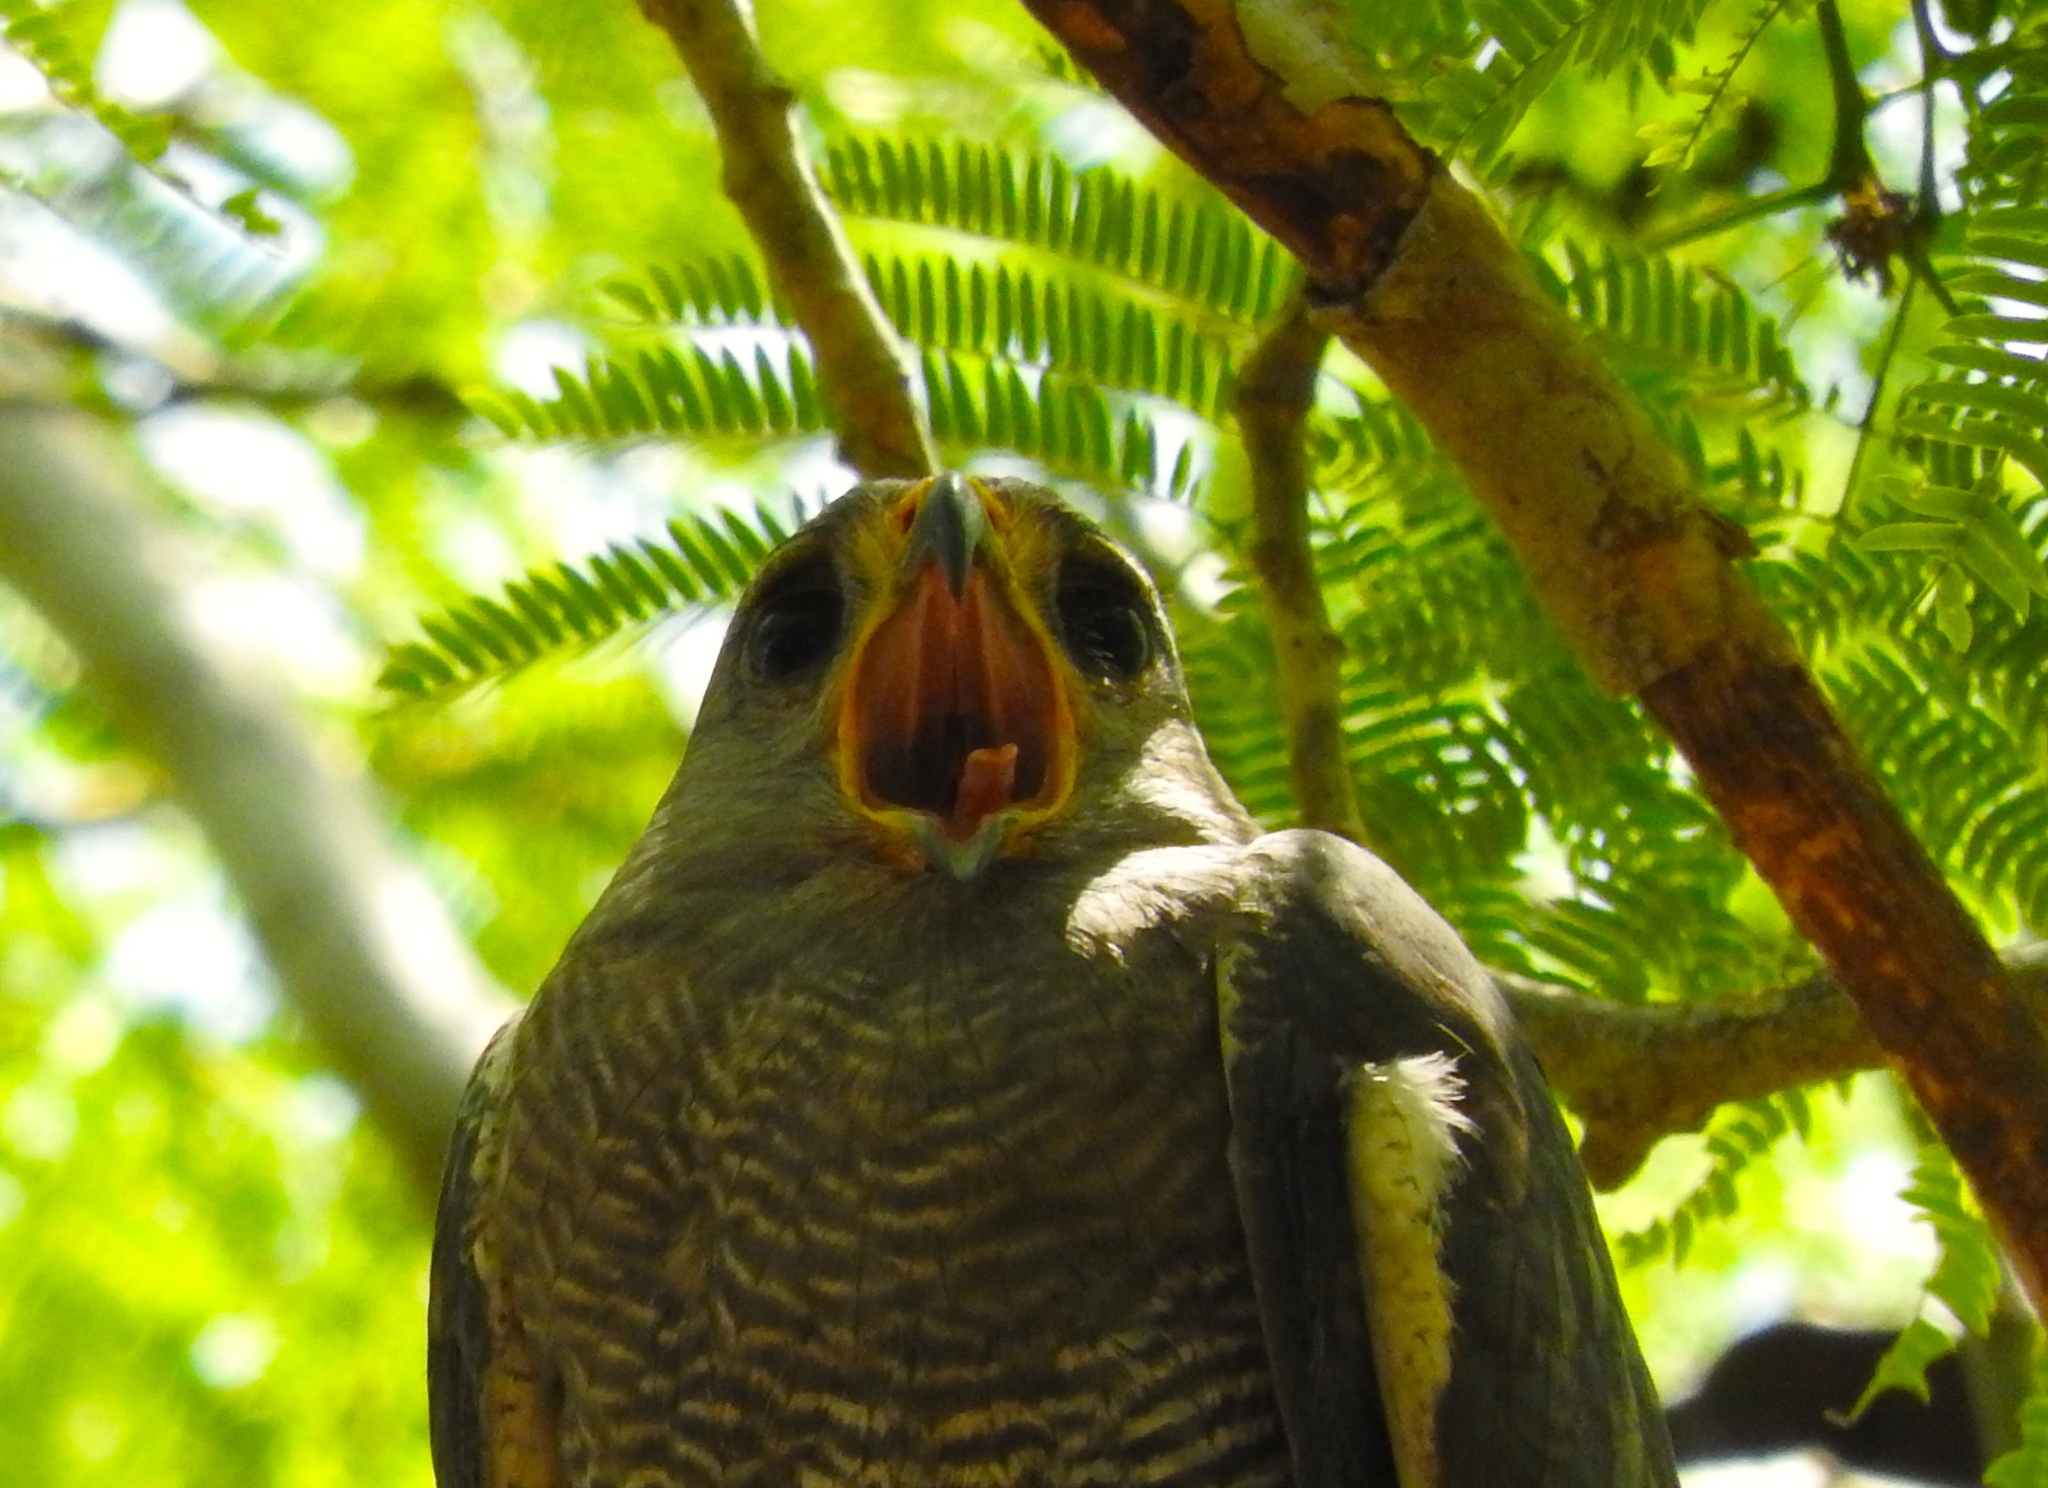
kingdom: Animalia
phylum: Chordata
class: Aves
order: Accipitriformes
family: Accipitridae
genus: Buteo
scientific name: Buteo nitidus
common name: Grey-lined hawk
